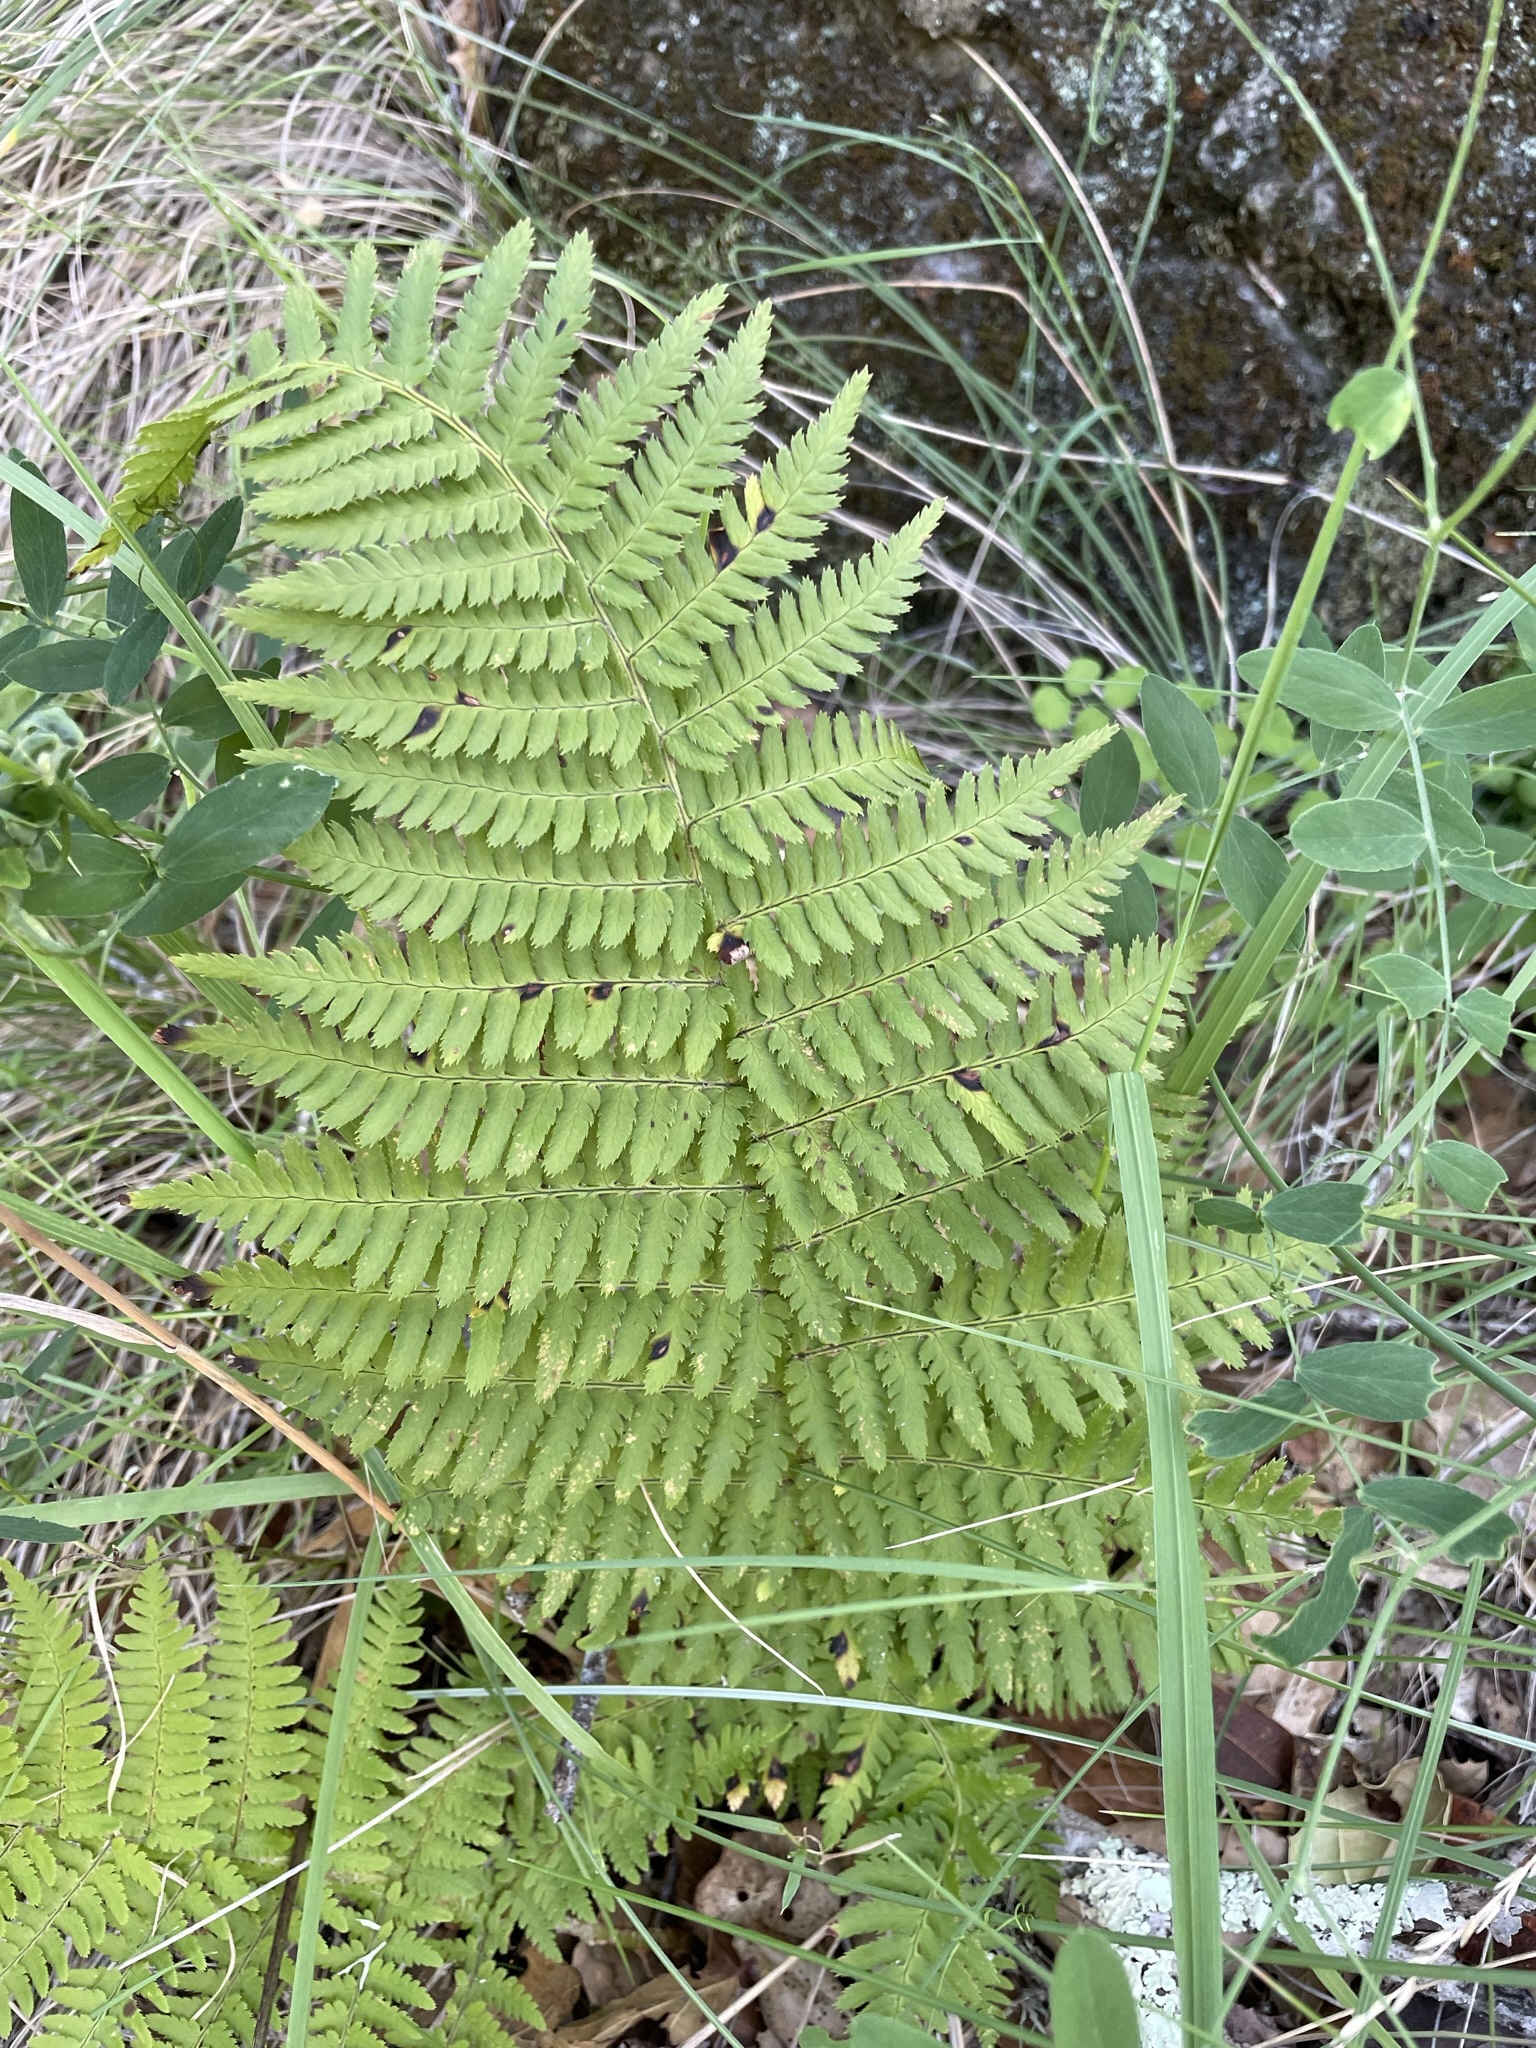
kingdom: Plantae
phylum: Tracheophyta
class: Polypodiopsida
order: Polypodiales
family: Dryopteridaceae
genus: Dryopteris
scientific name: Dryopteris arguta
